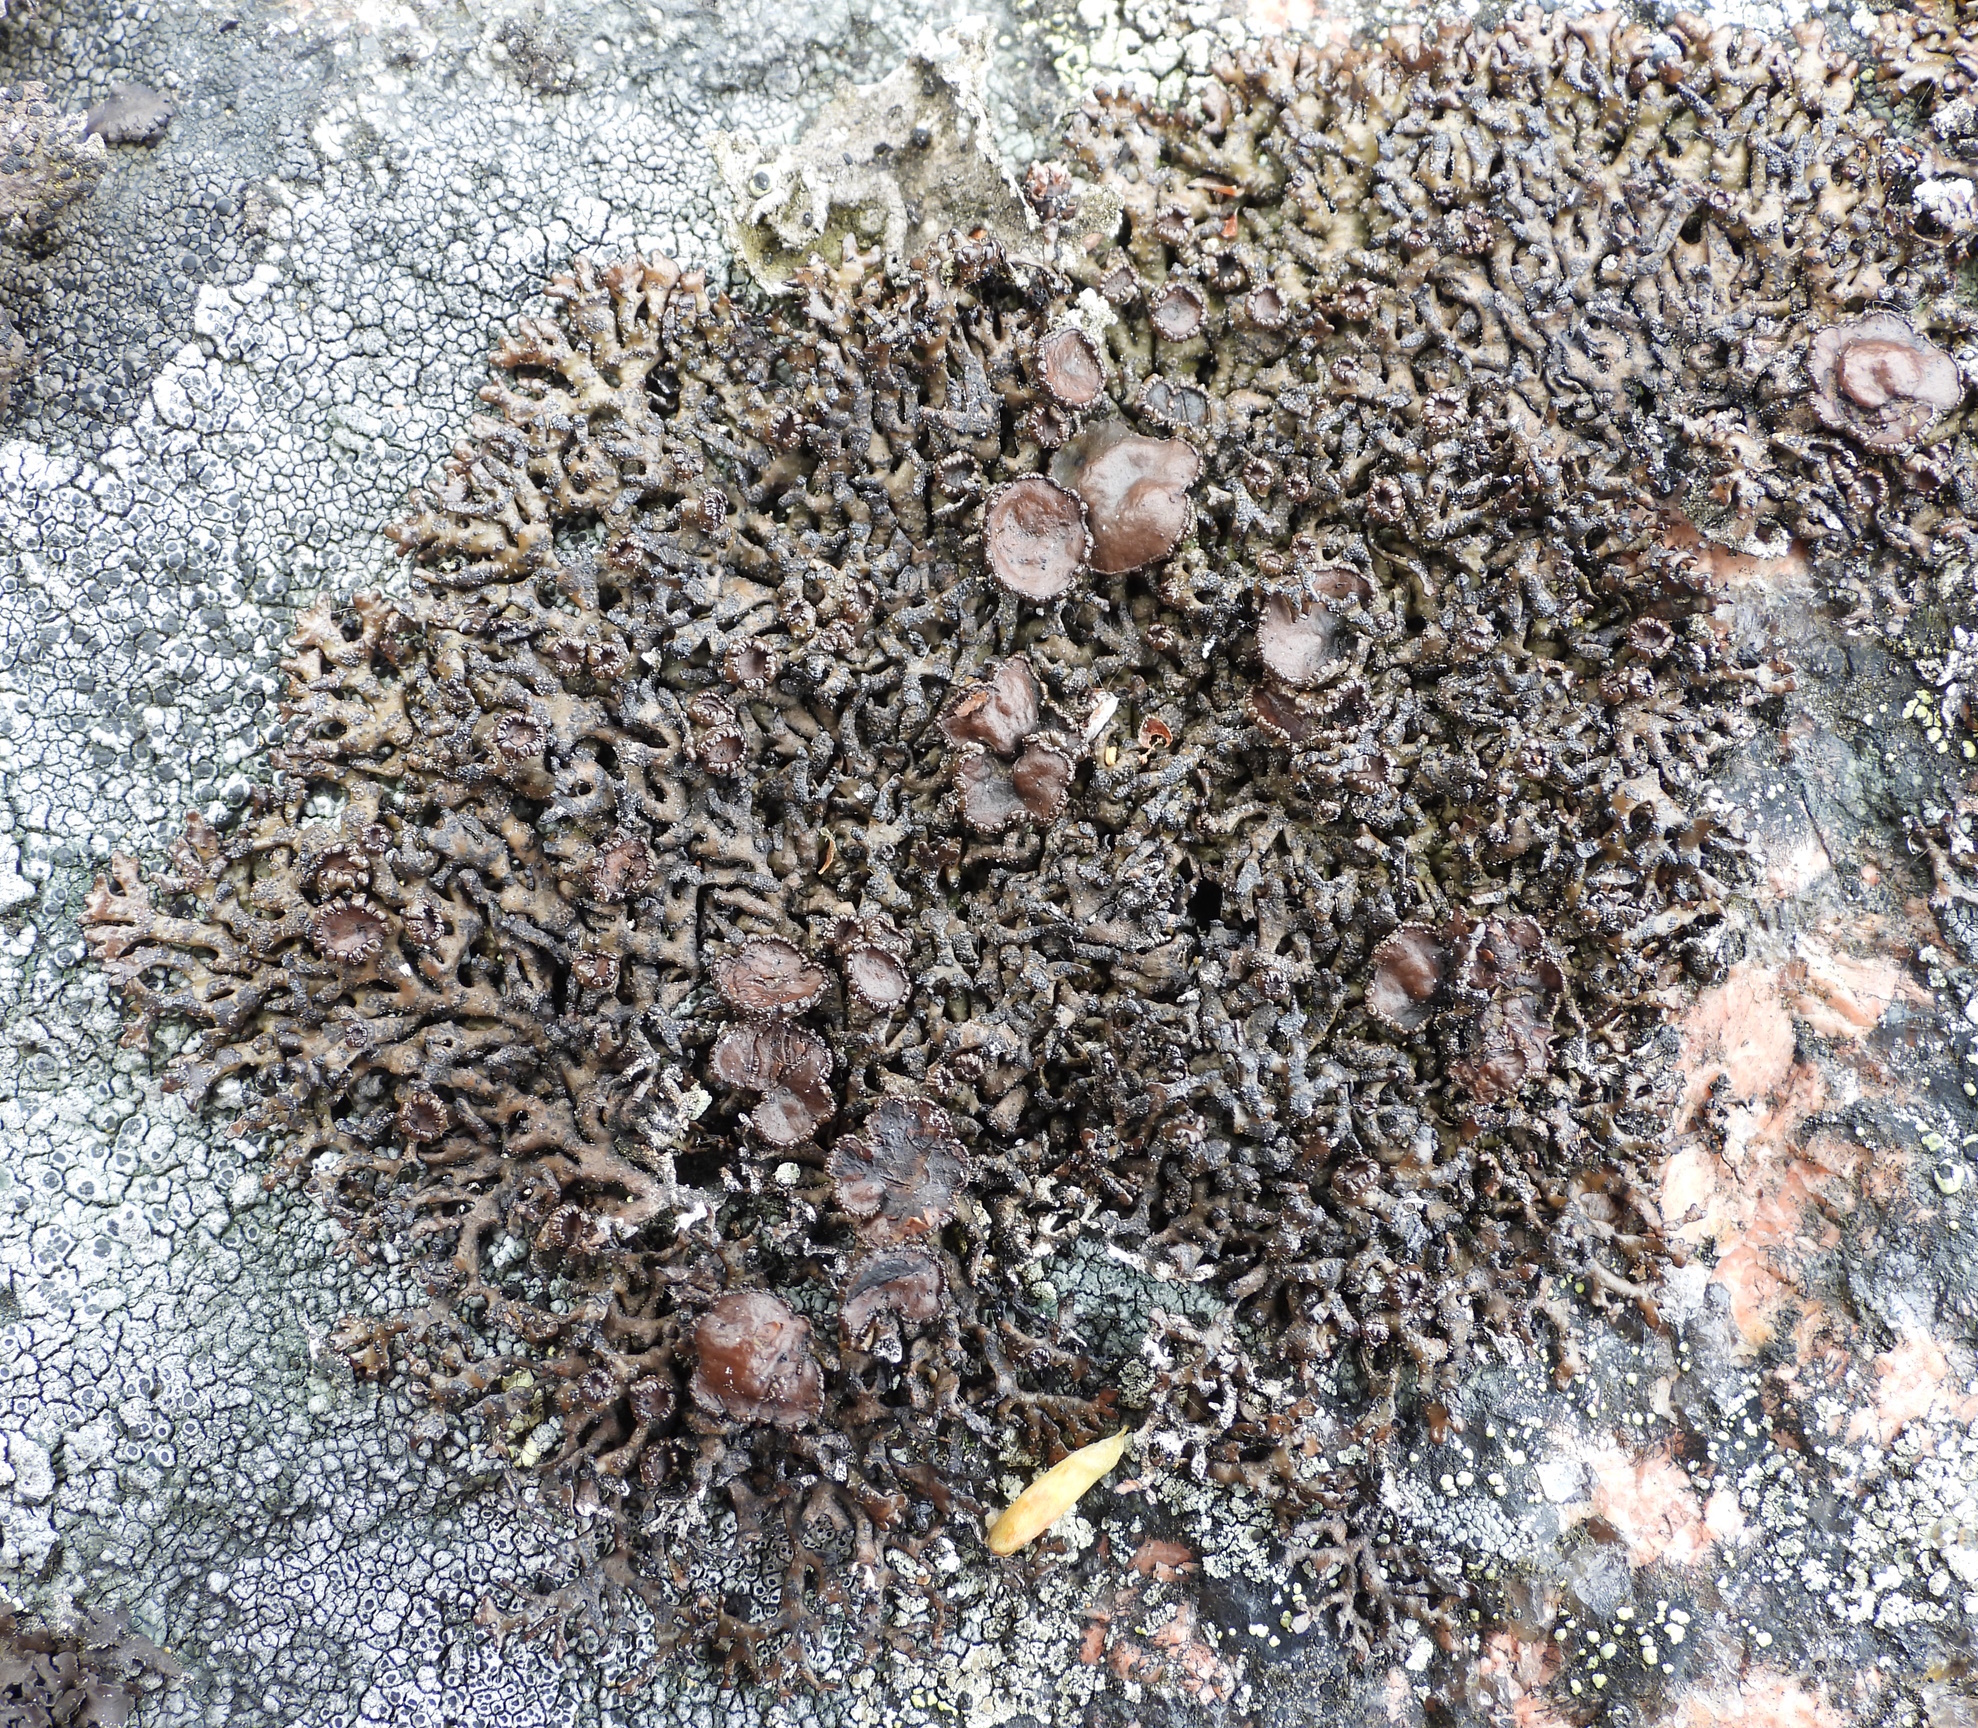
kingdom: Fungi
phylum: Ascomycota
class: Lecanoromycetes
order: Lecanorales
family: Parmeliaceae
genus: Melanelia
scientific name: Melanelia stygia
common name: Alpine camouflage lichen
